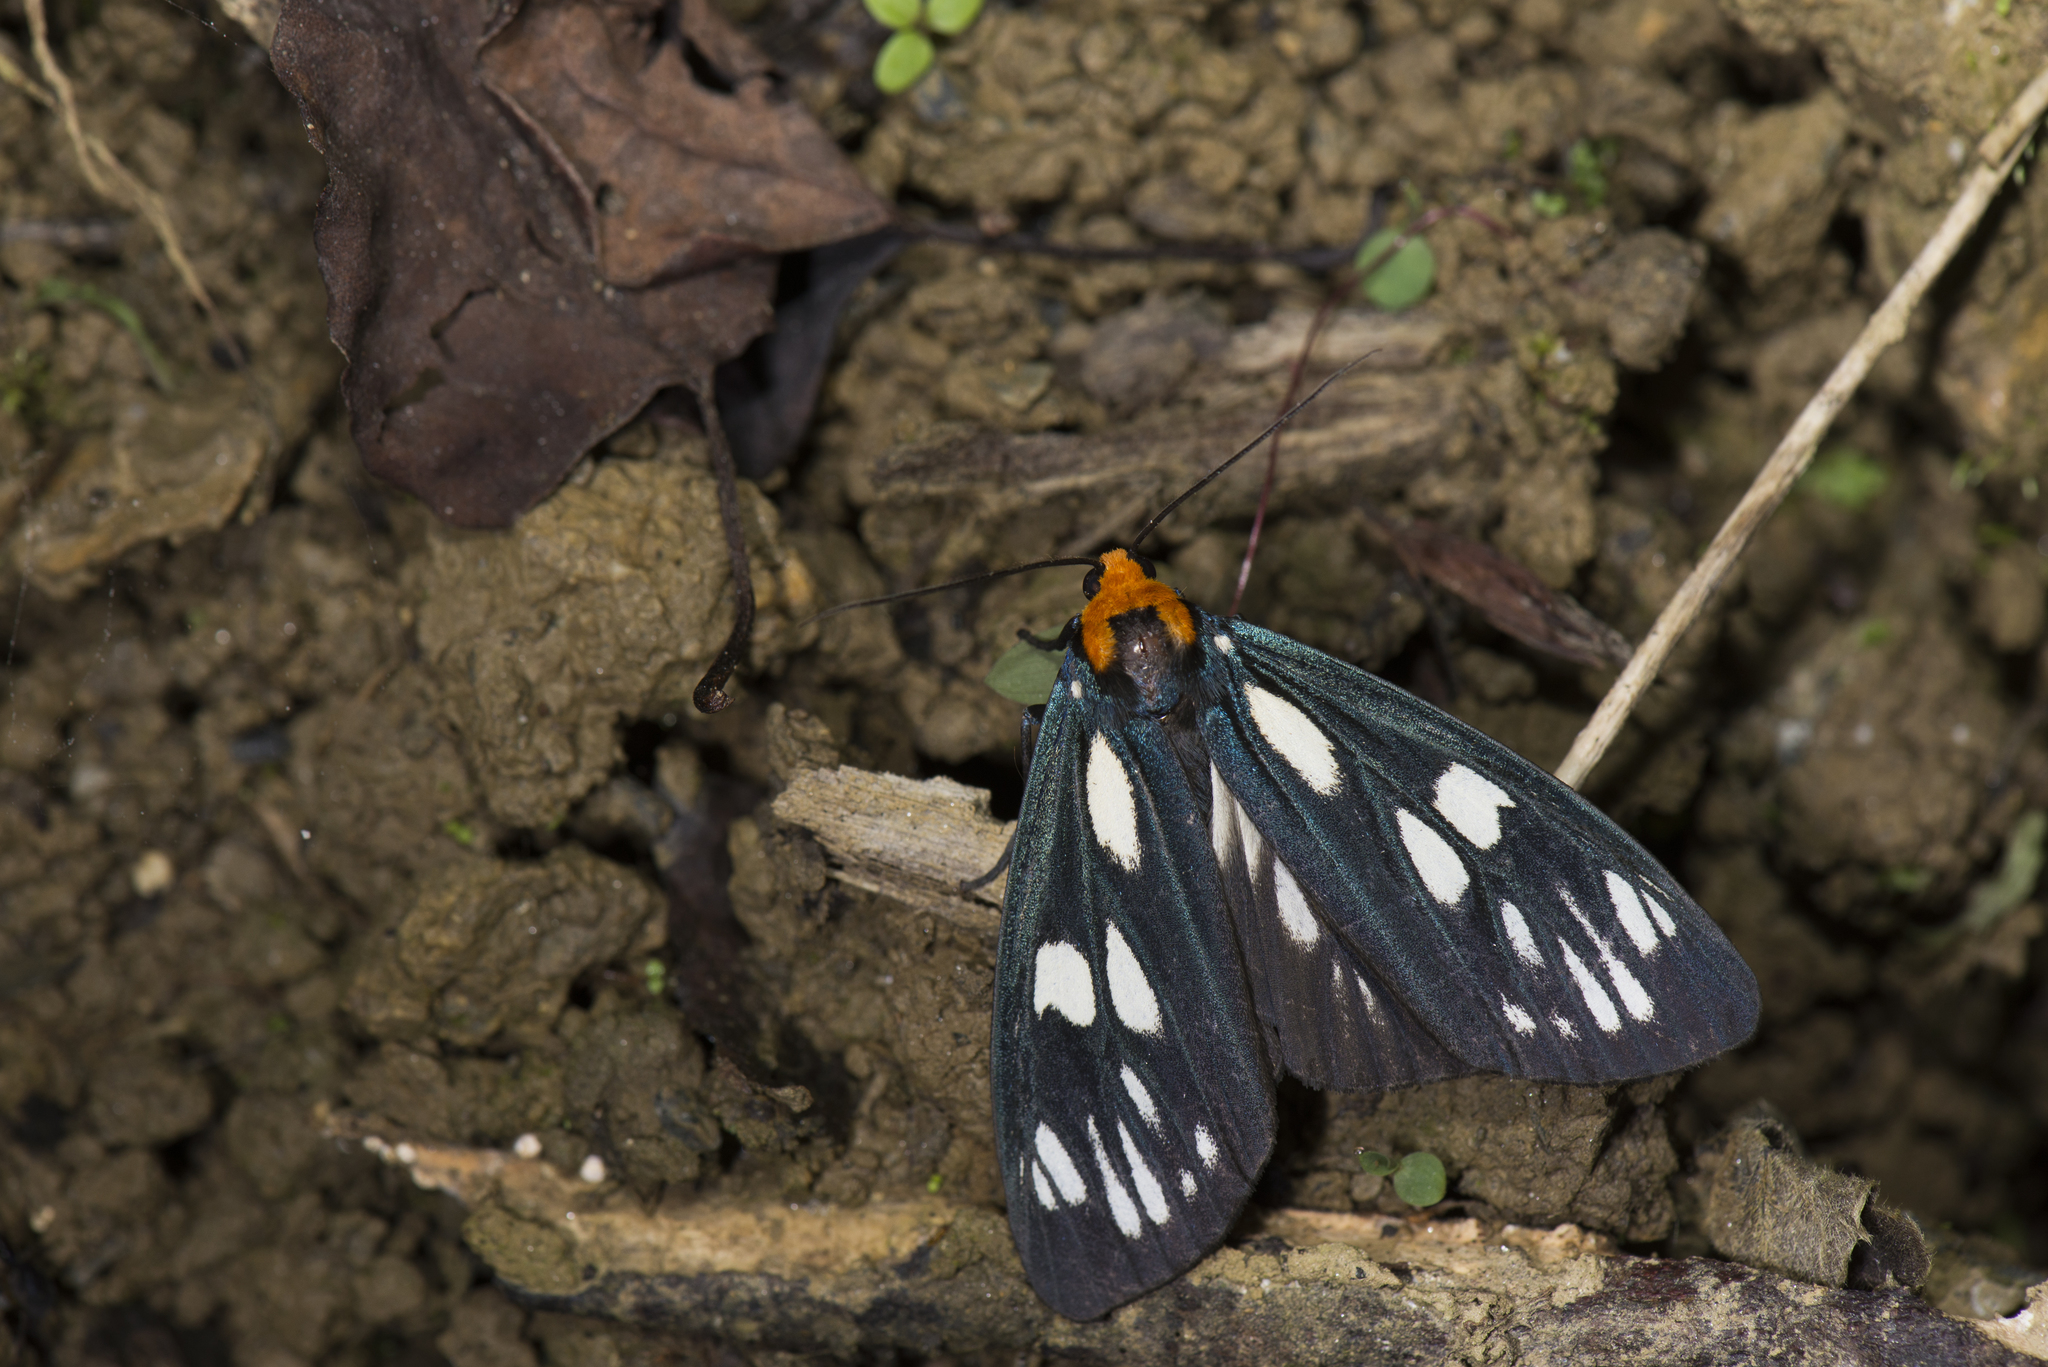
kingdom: Animalia
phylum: Arthropoda
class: Insecta
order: Lepidoptera
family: Erebidae
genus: Macrobrochis
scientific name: Macrobrochis gigas
